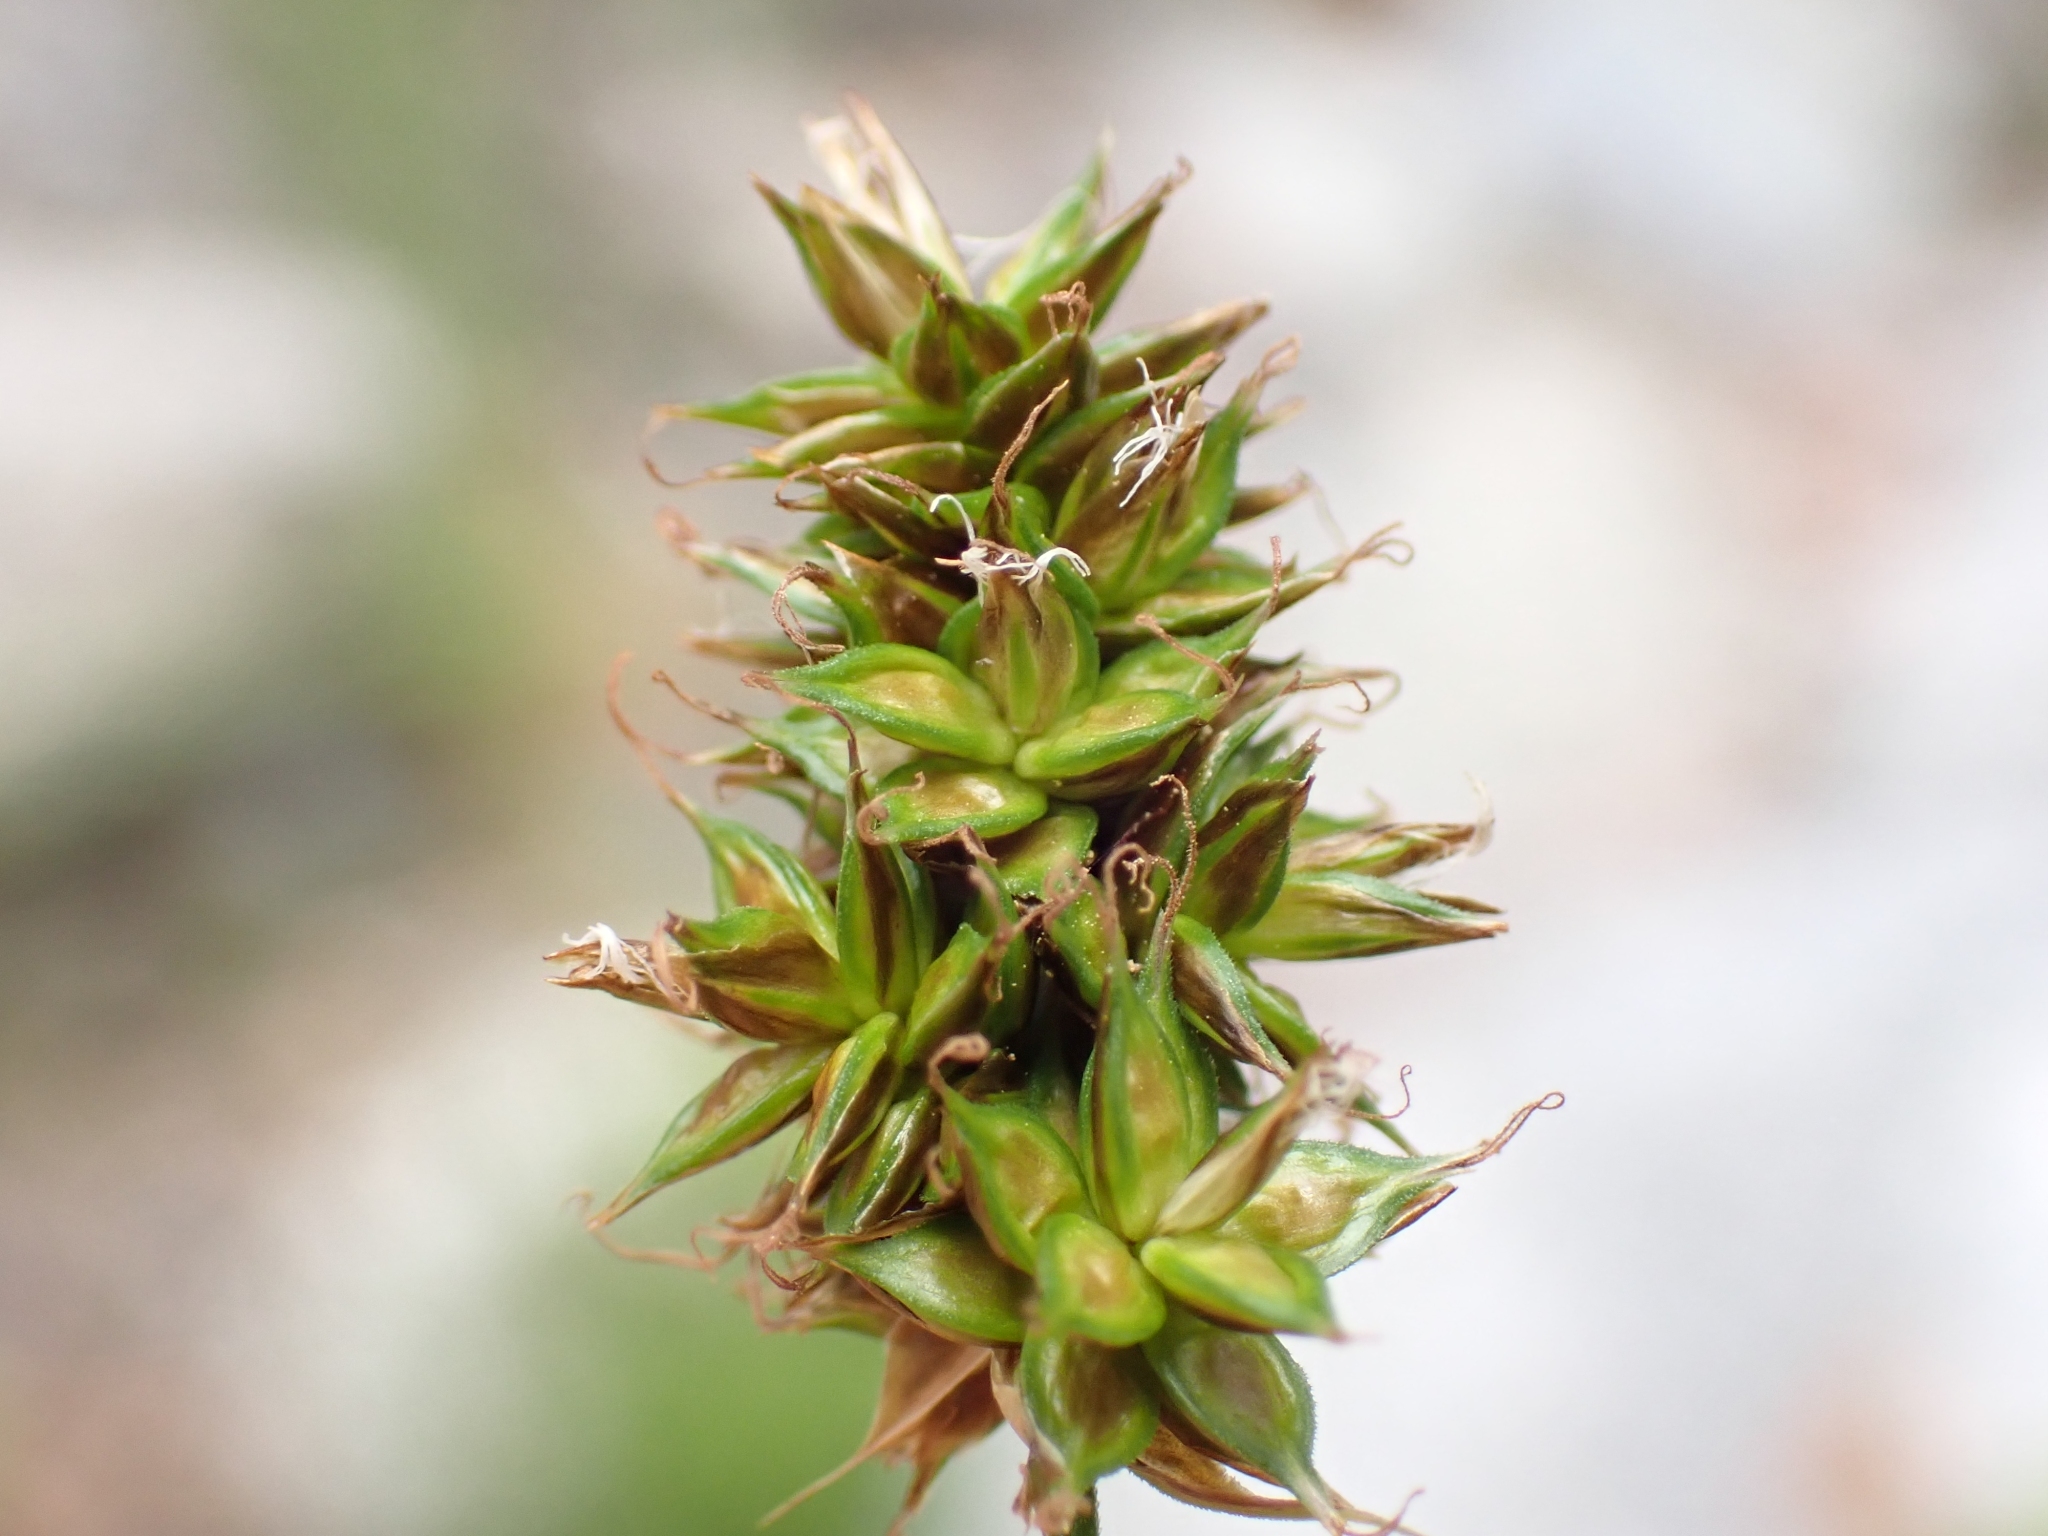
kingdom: Plantae
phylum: Tracheophyta
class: Liliopsida
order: Poales
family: Cyperaceae
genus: Carex
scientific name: Carex hoodii
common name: Hood's sedge
